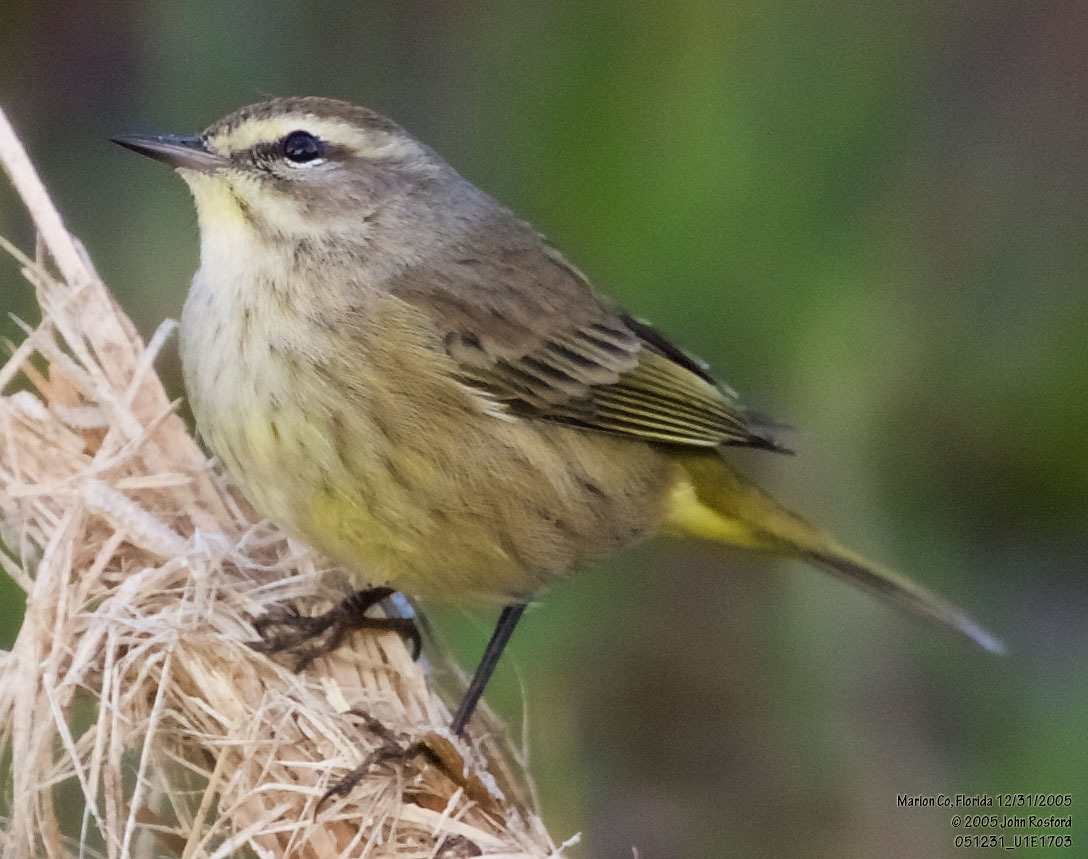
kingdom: Animalia
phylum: Chordata
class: Aves
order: Passeriformes
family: Parulidae
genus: Setophaga
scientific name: Setophaga palmarum
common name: Palm warbler
